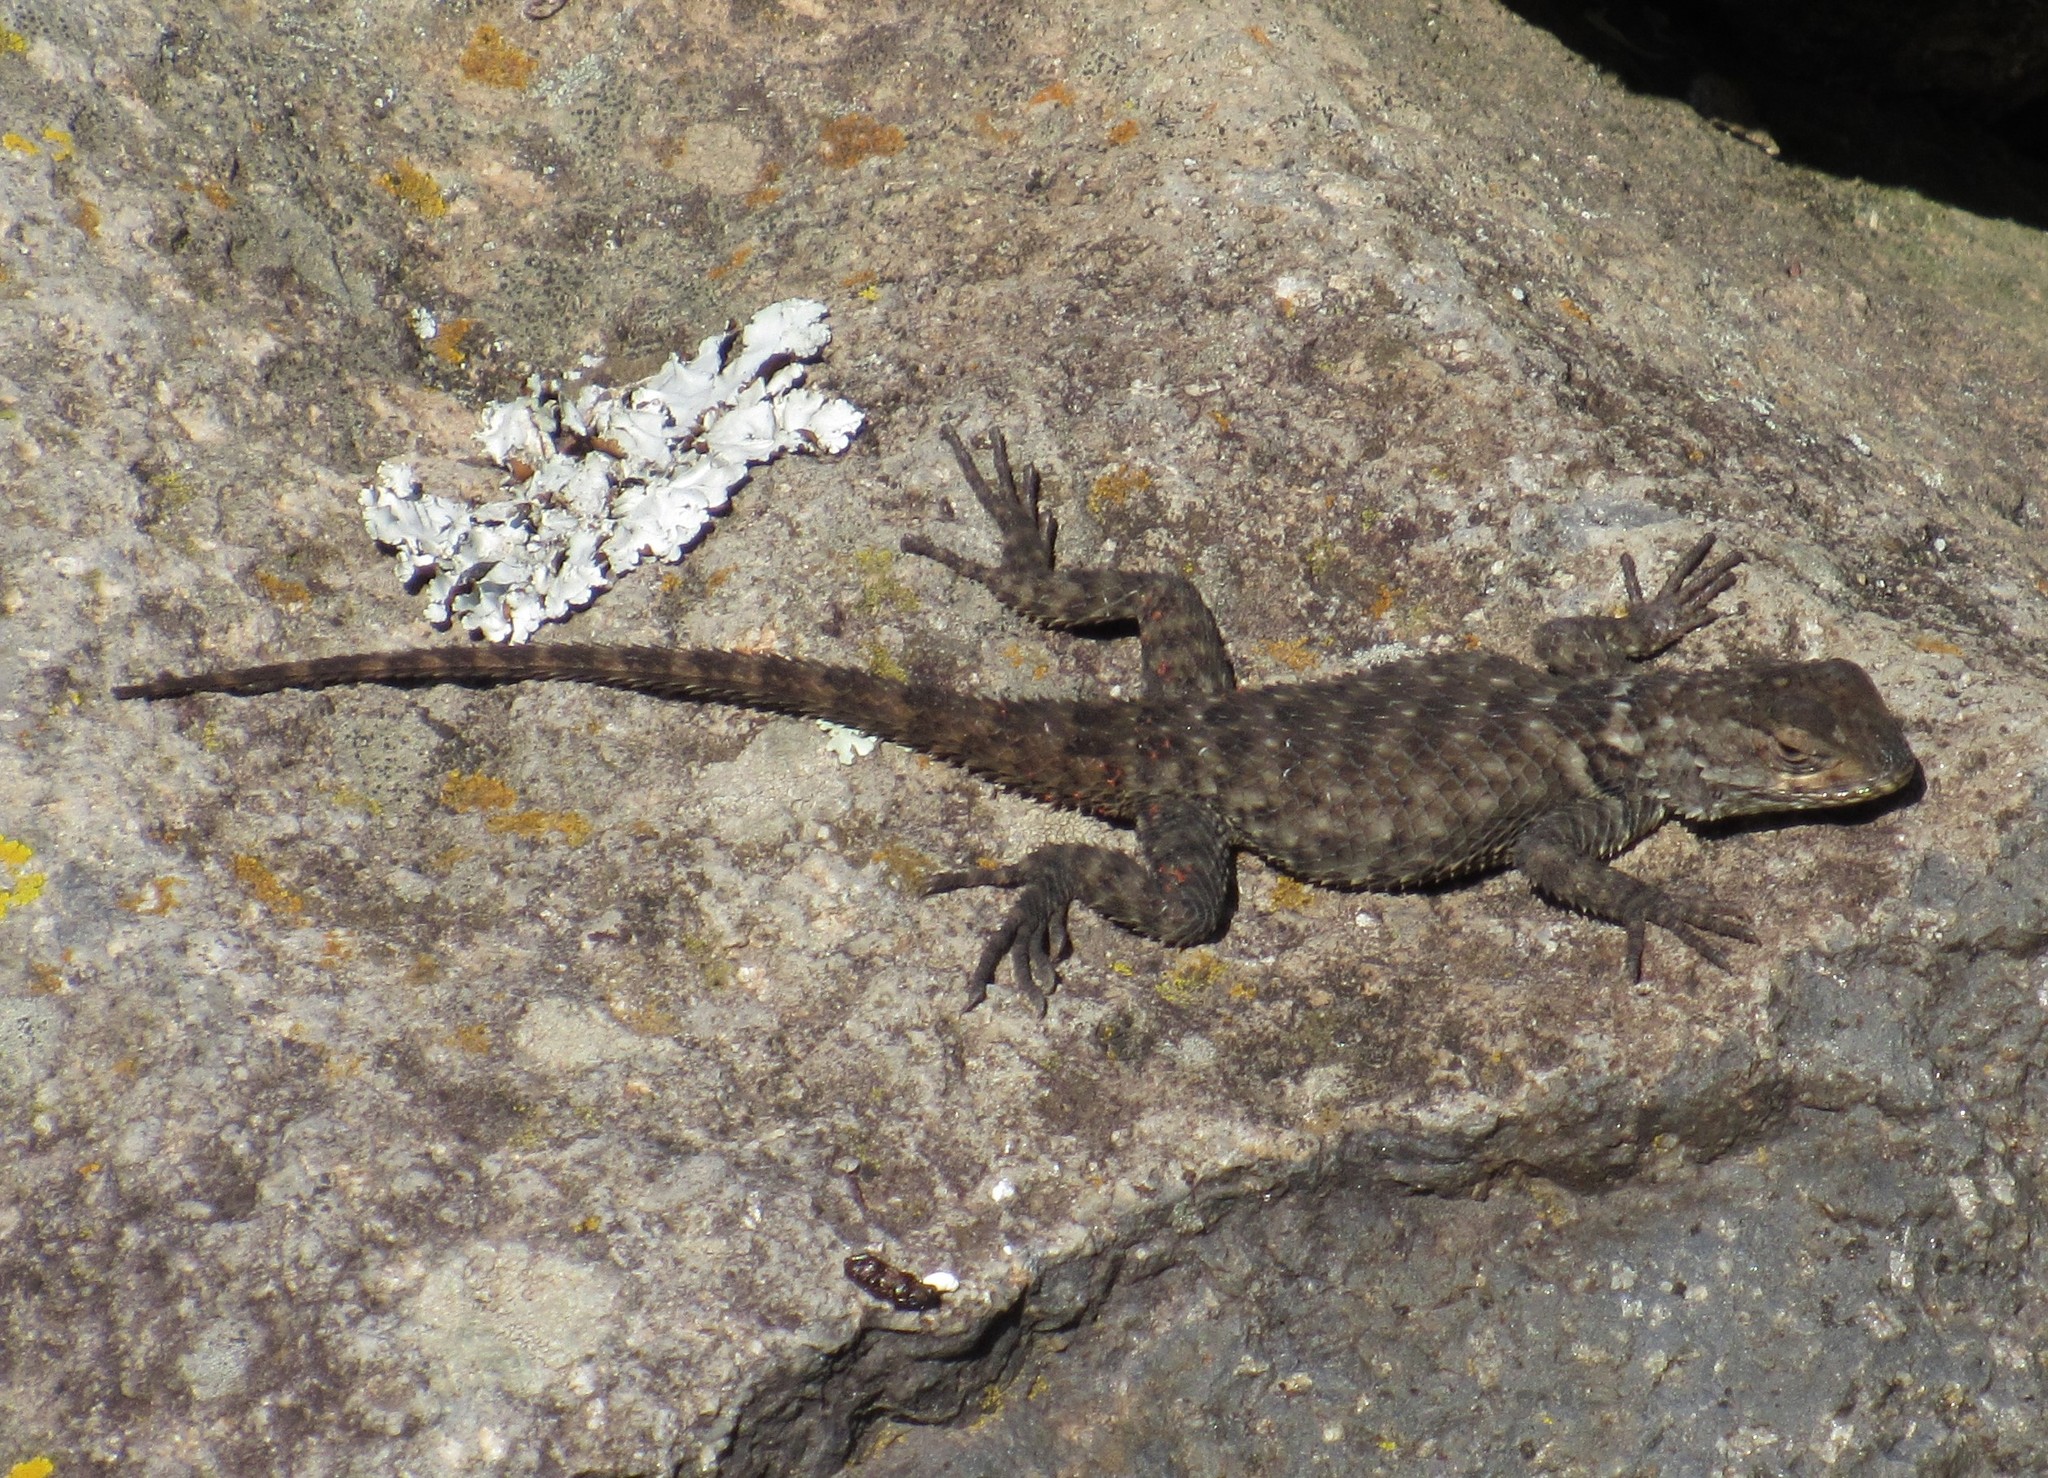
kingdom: Animalia
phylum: Chordata
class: Squamata
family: Phrynosomatidae
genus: Sceloporus
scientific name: Sceloporus torquatus
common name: Central plateau torquate lizard [melanogaster]
